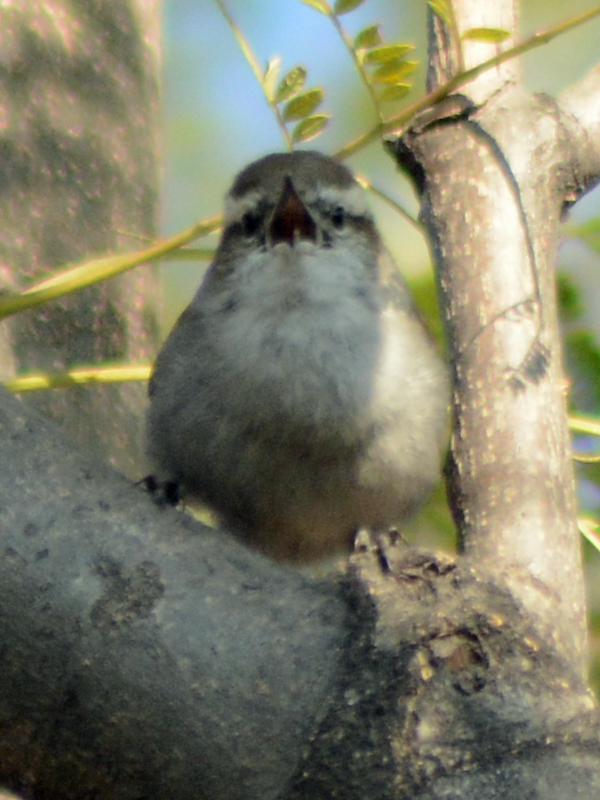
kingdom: Animalia
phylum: Chordata
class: Aves
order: Passeriformes
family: Troglodytidae
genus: Thryomanes
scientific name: Thryomanes bewickii
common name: Bewick's wren
